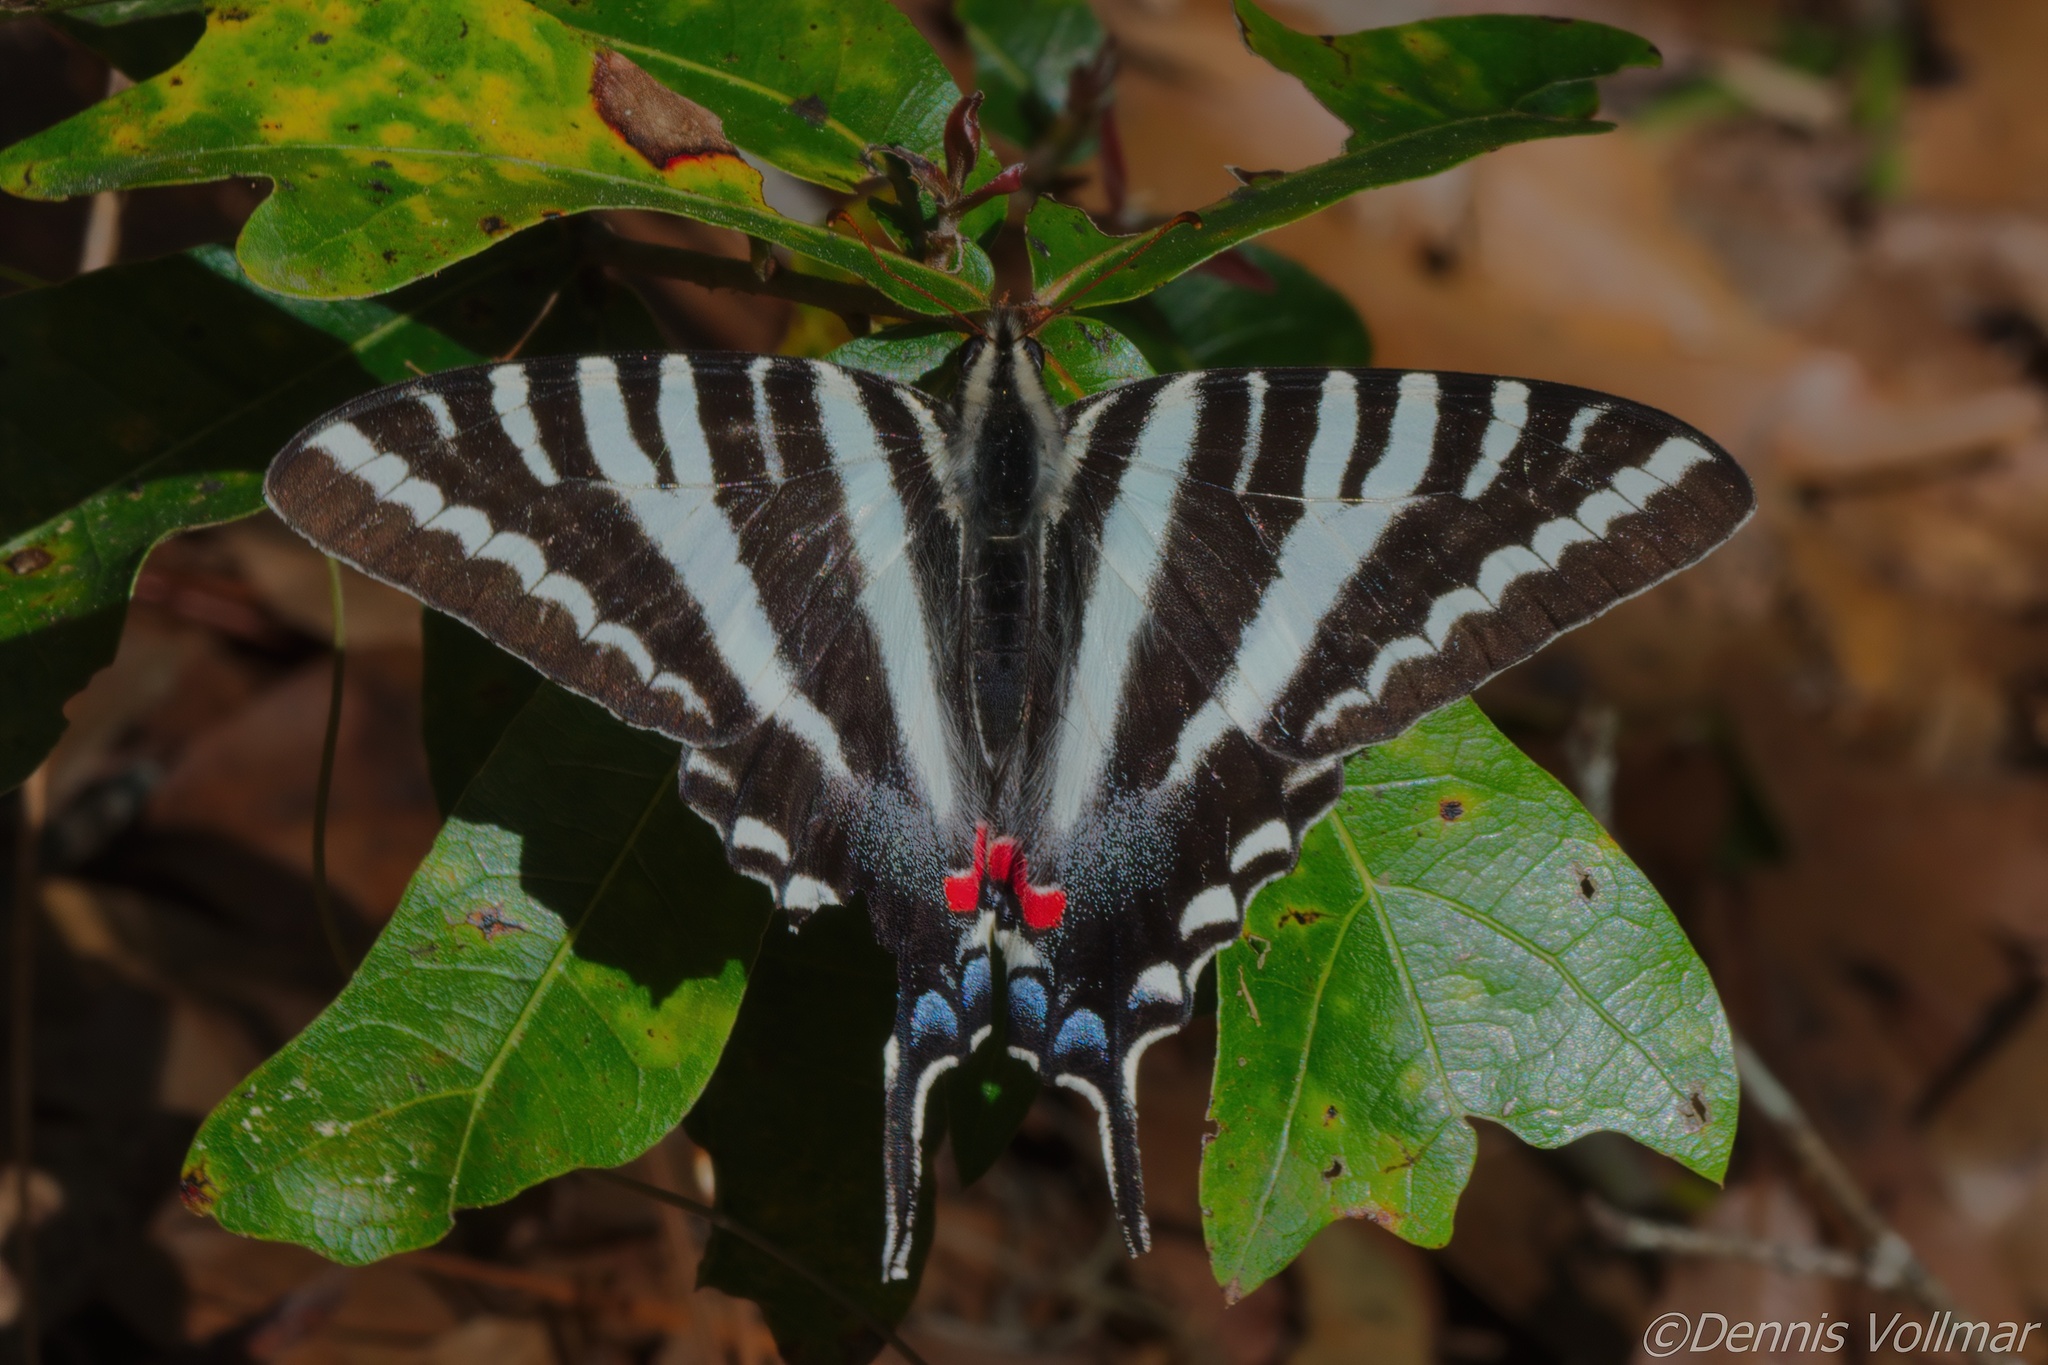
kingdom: Animalia
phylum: Arthropoda
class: Insecta
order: Lepidoptera
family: Papilionidae
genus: Protographium
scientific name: Protographium marcellus
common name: Zebra swallowtail
